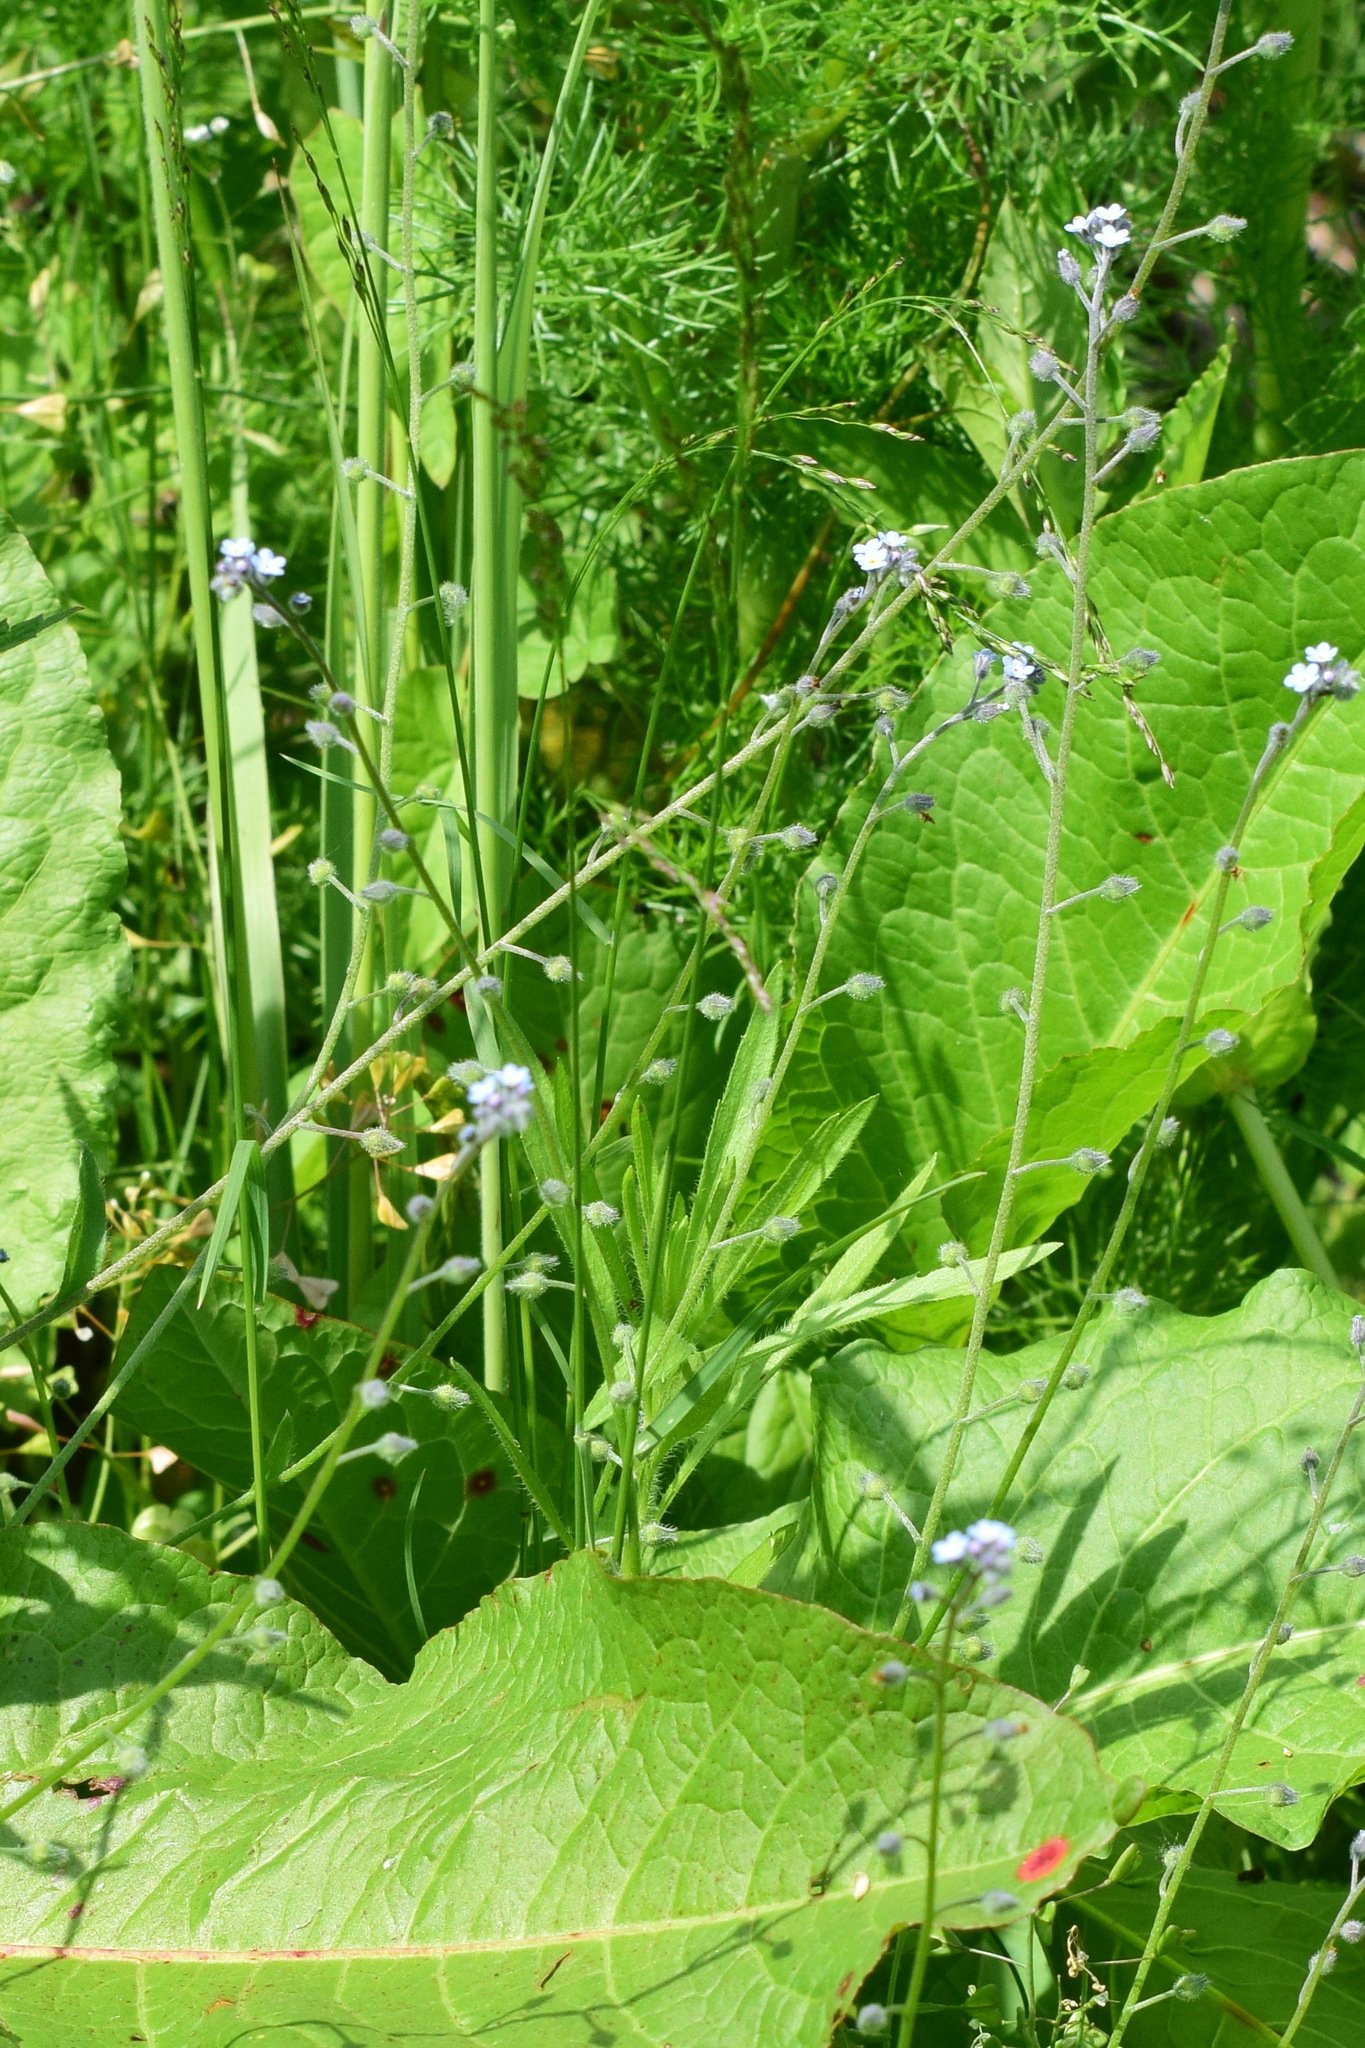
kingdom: Plantae
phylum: Tracheophyta
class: Magnoliopsida
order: Boraginales
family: Boraginaceae
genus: Myosotis
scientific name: Myosotis arvensis
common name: Field forget-me-not
